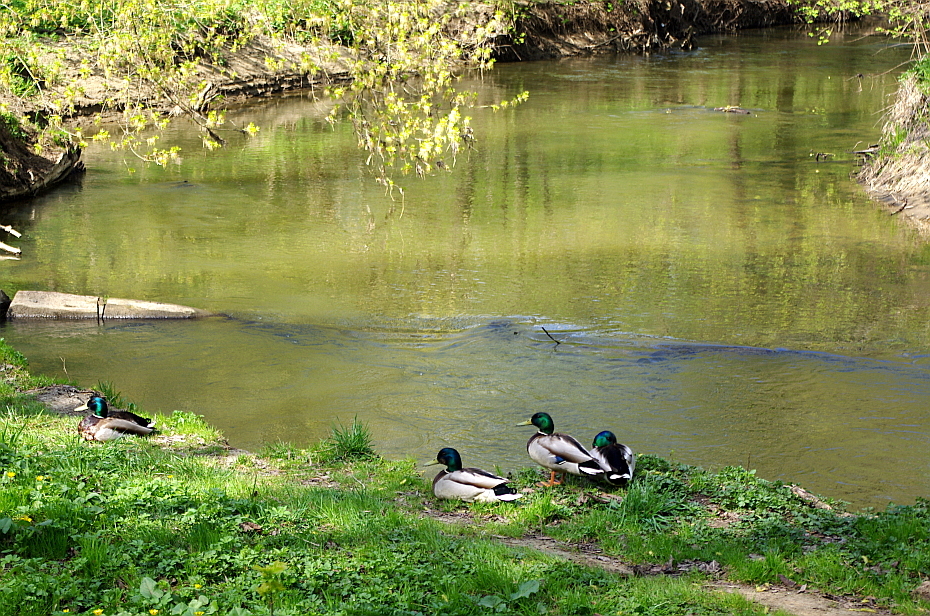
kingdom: Animalia
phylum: Chordata
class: Aves
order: Anseriformes
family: Anatidae
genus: Anas
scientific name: Anas platyrhynchos
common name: Mallard
